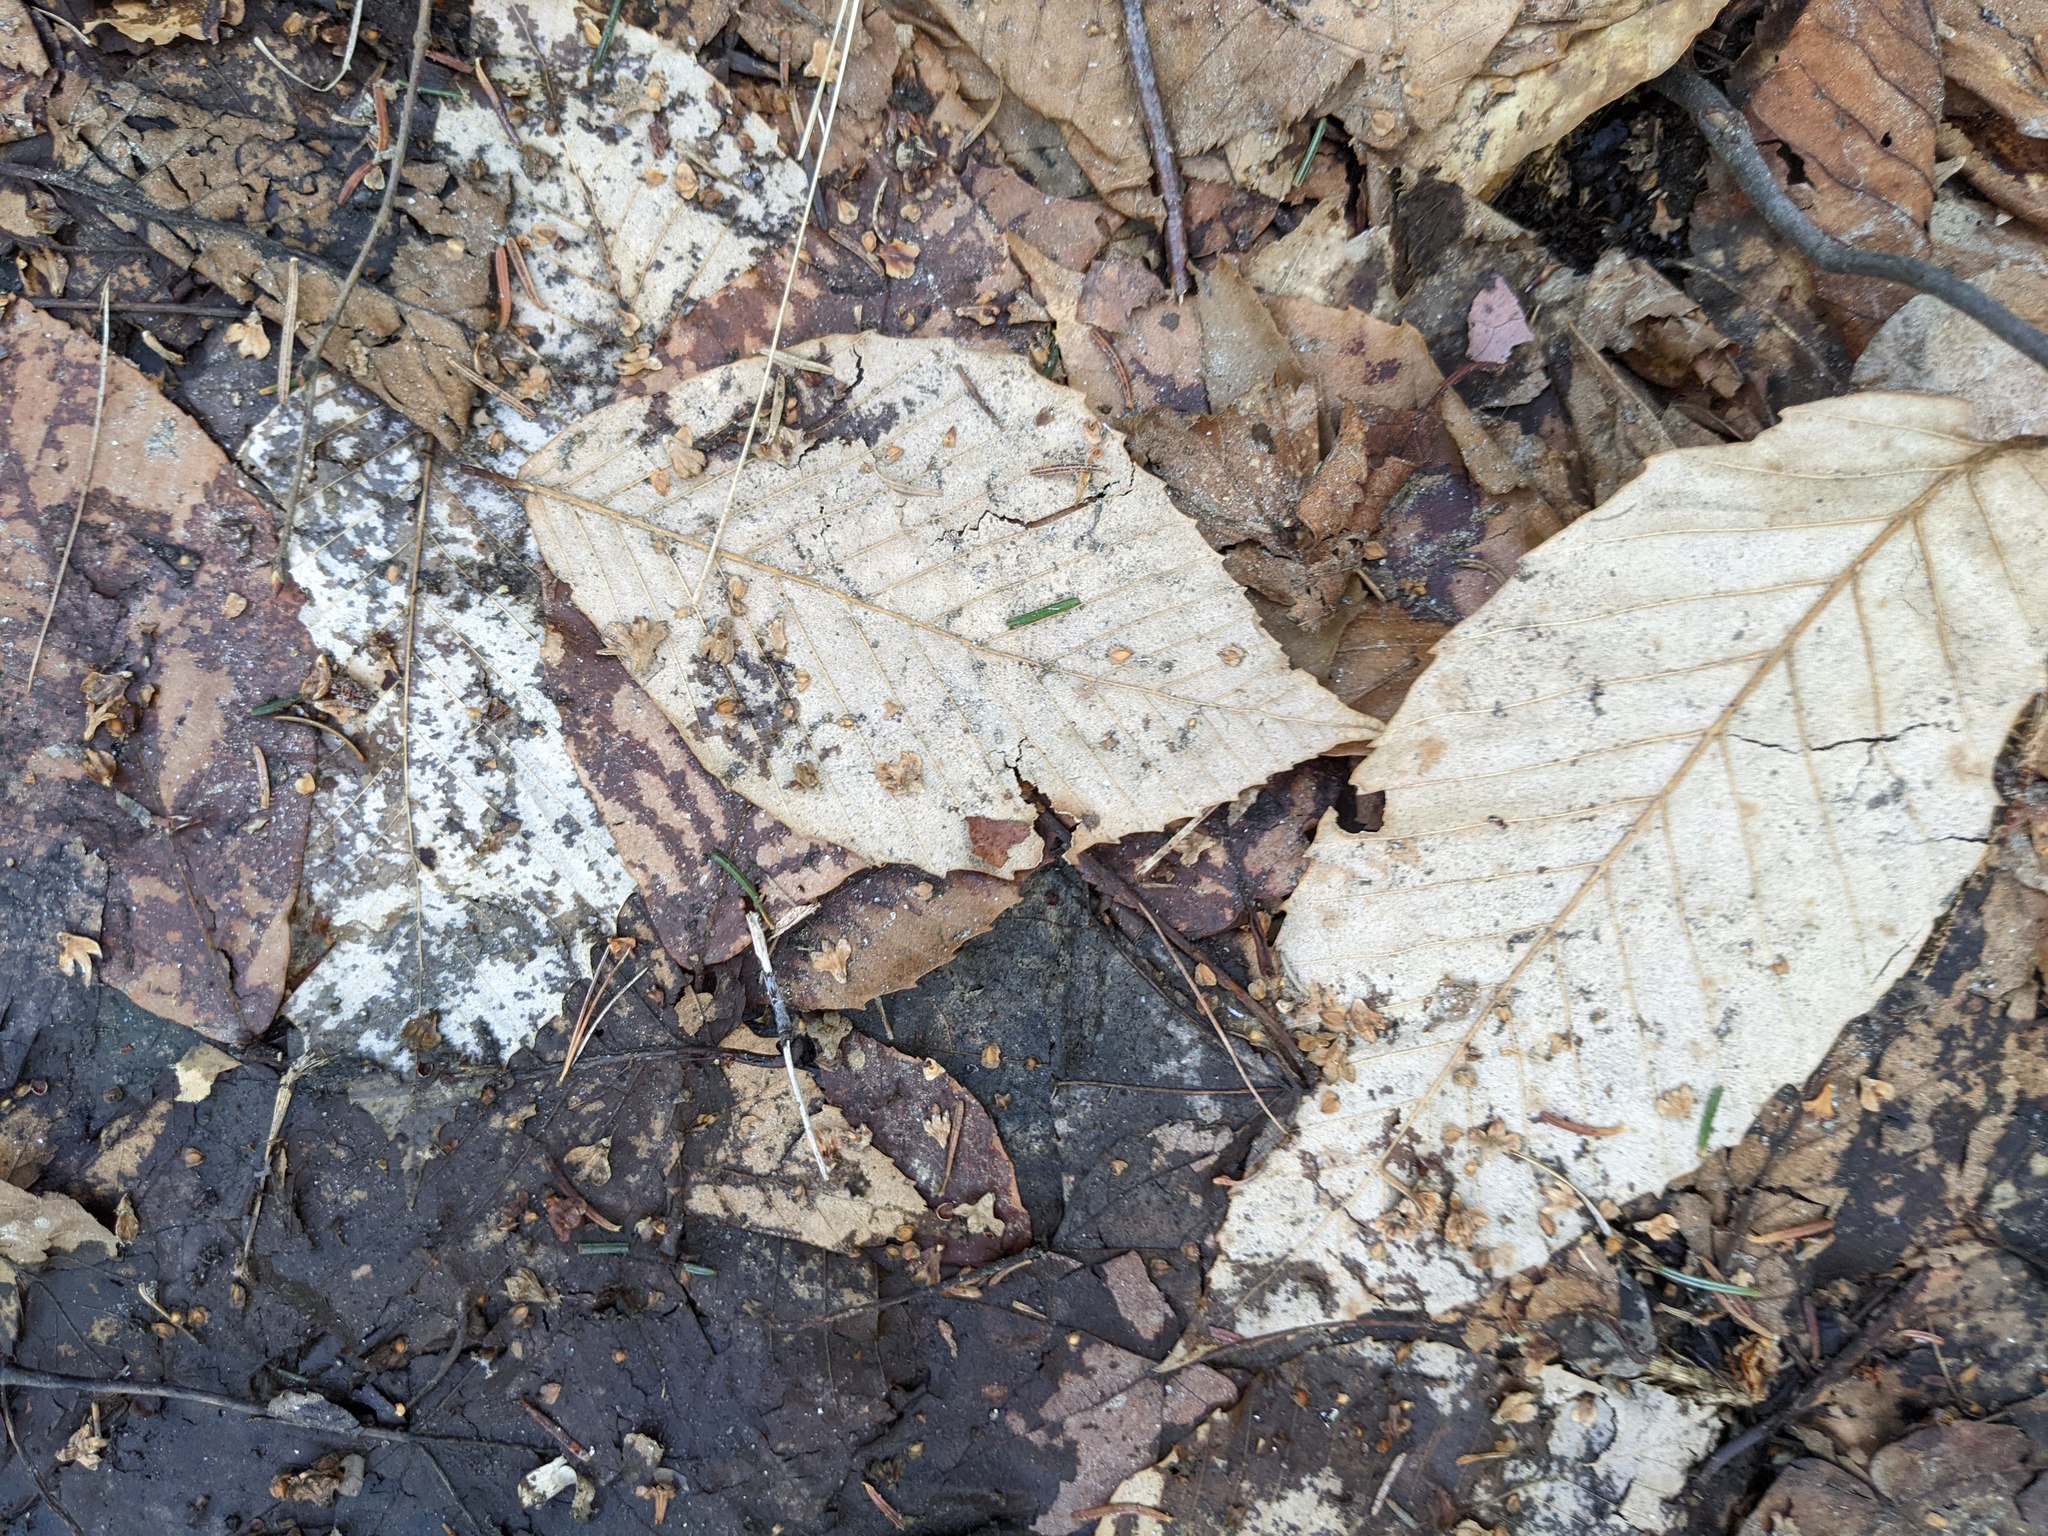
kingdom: Plantae
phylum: Tracheophyta
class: Magnoliopsida
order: Fagales
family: Fagaceae
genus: Fagus
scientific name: Fagus grandifolia
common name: American beech
